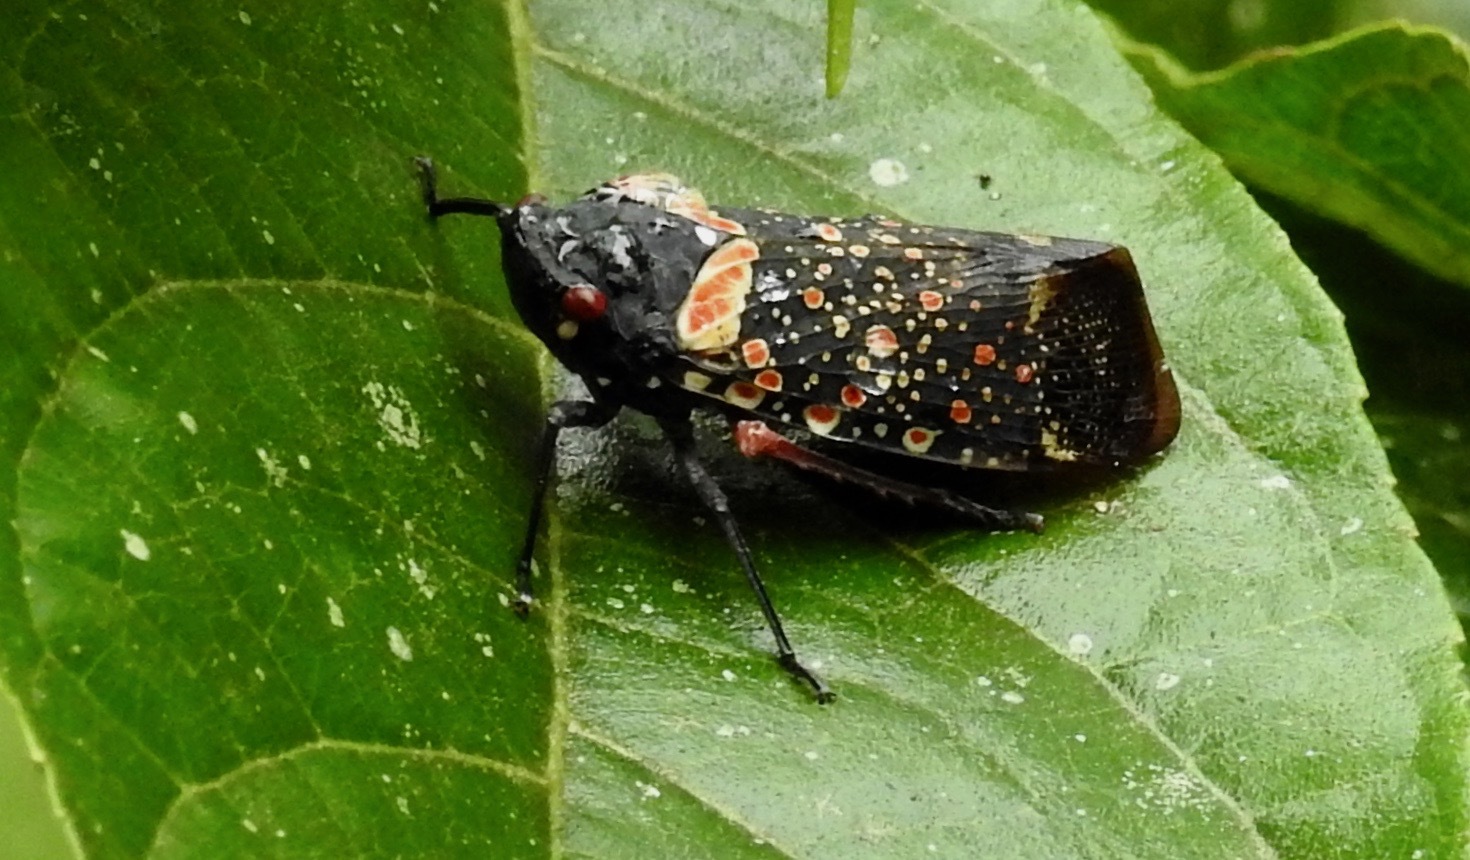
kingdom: Animalia
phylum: Arthropoda
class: Insecta
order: Hemiptera
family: Fulgoridae
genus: Zeunasa
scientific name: Zeunasa fastuosa
